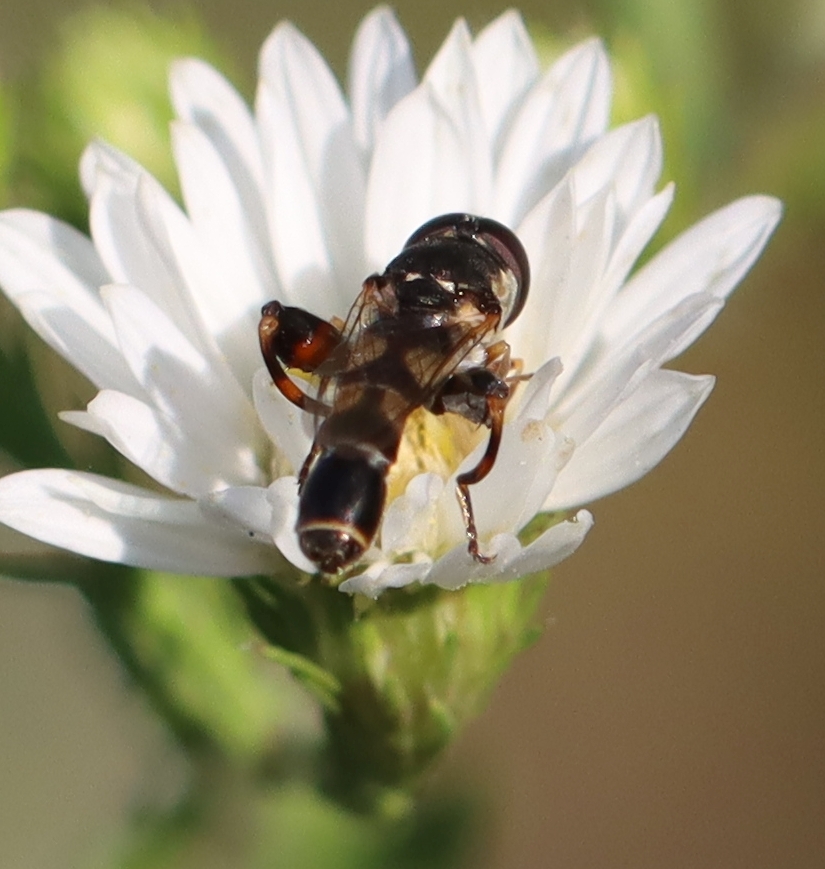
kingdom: Animalia
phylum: Arthropoda
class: Insecta
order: Diptera
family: Syrphidae
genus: Syritta
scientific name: Syritta pipiens
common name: Hover fly
